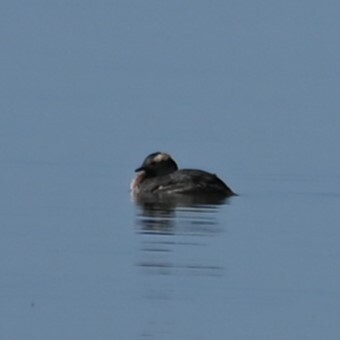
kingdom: Animalia
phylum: Chordata
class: Aves
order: Podicipediformes
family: Podicipedidae
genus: Podiceps
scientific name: Podiceps auritus
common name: Horned grebe
